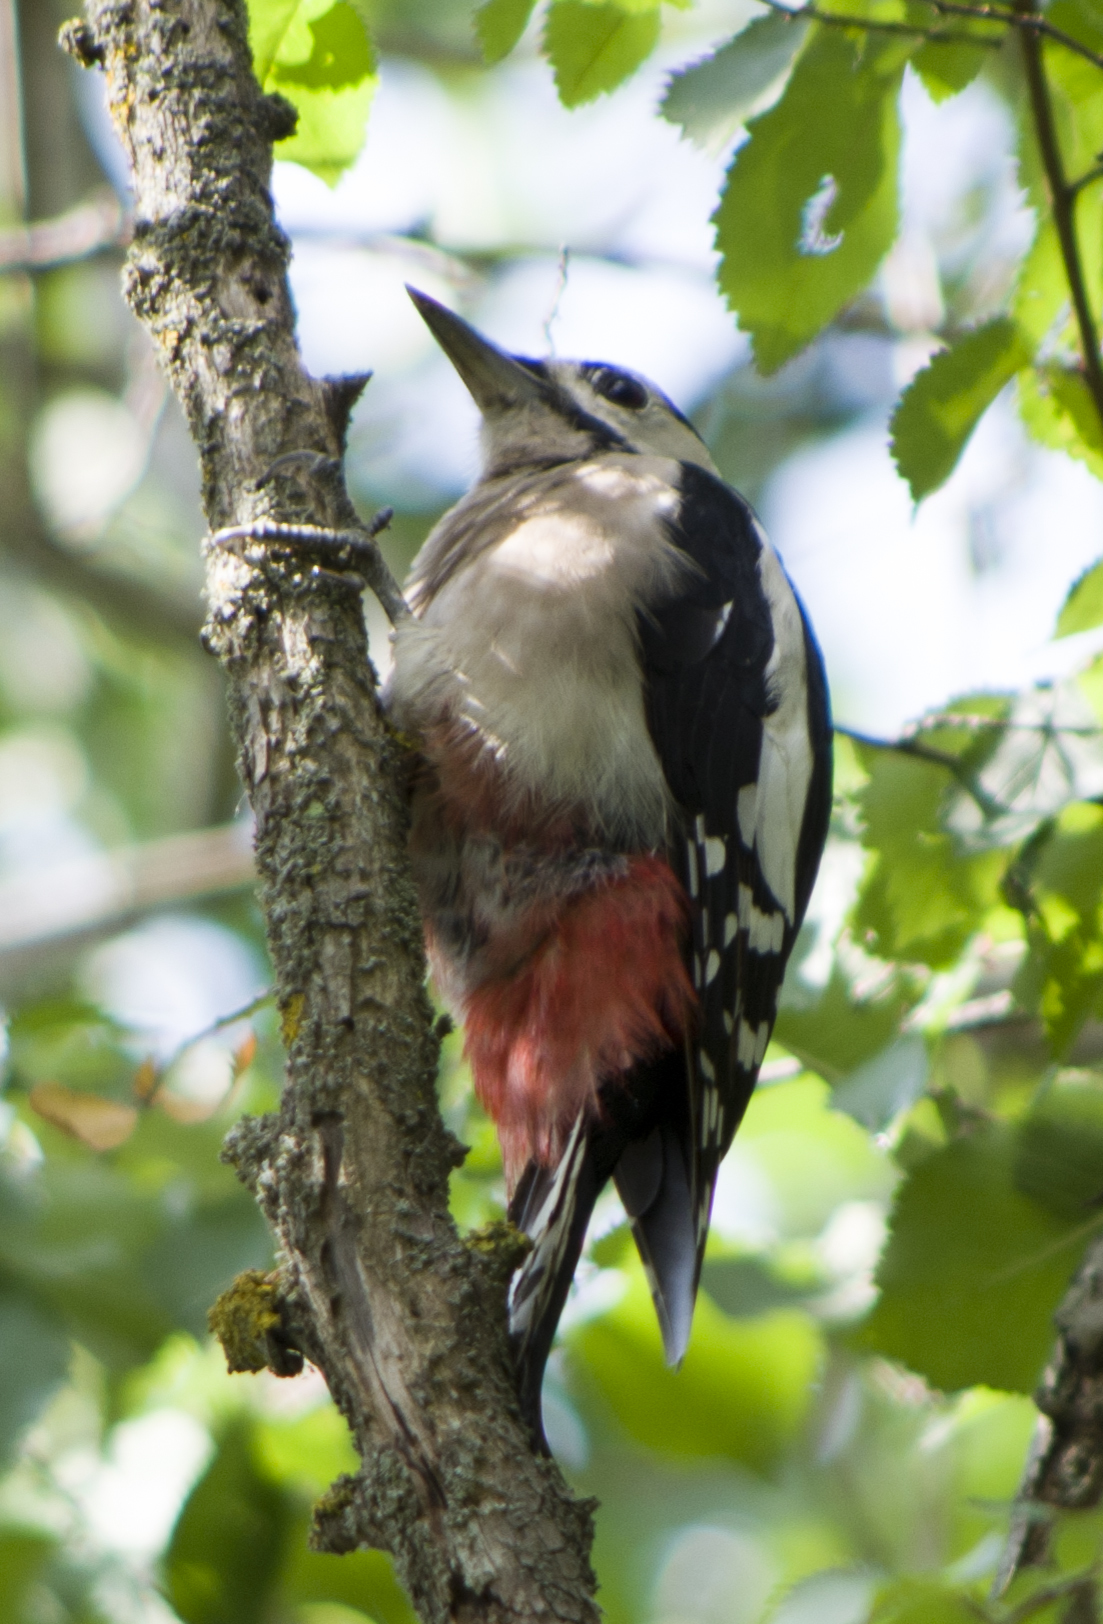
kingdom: Animalia
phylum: Chordata
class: Aves
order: Piciformes
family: Picidae
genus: Dendrocopos
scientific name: Dendrocopos major
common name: Great spotted woodpecker
